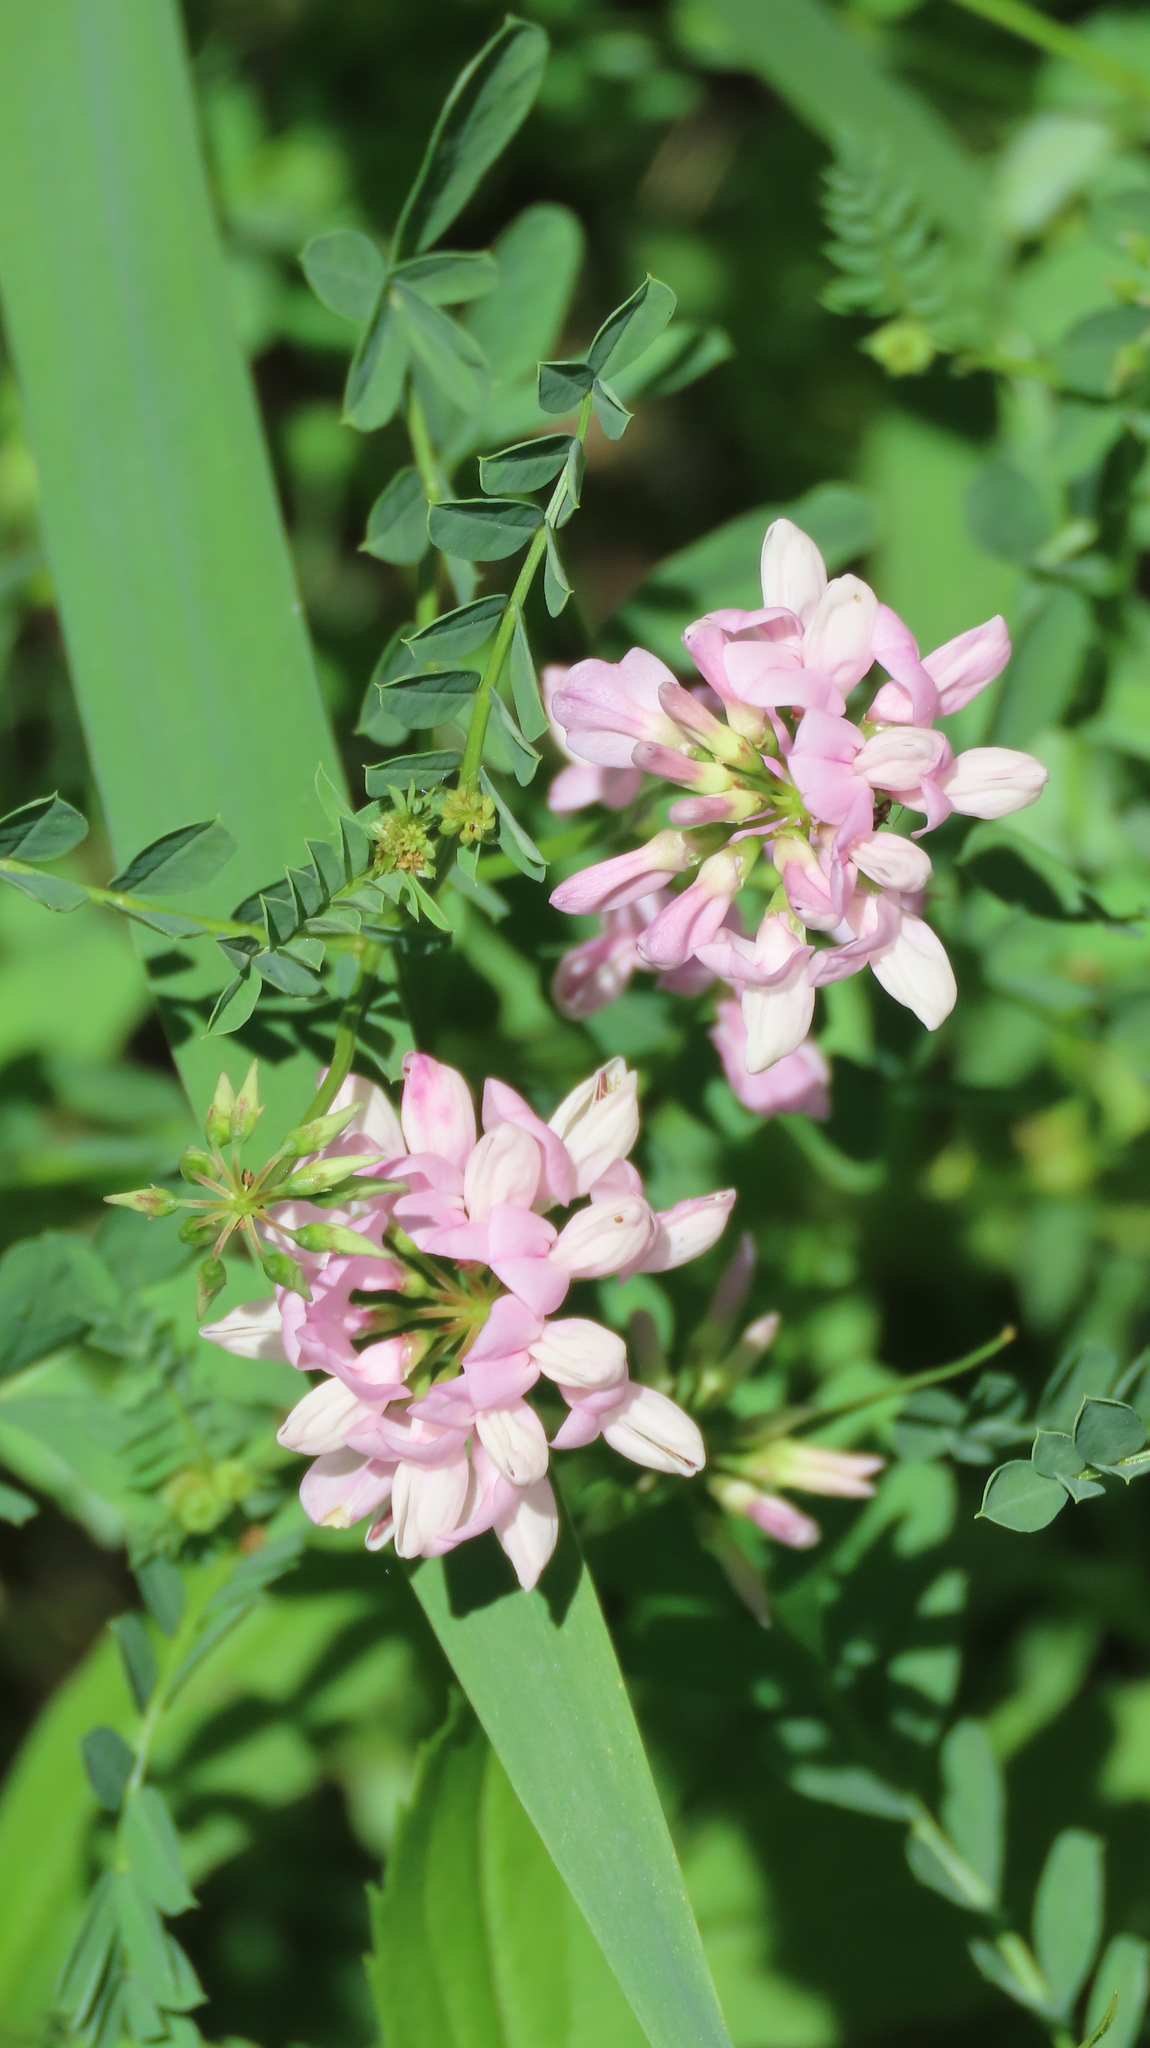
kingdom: Plantae
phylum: Tracheophyta
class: Magnoliopsida
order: Fabales
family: Fabaceae
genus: Coronilla
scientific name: Coronilla varia
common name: Crownvetch
